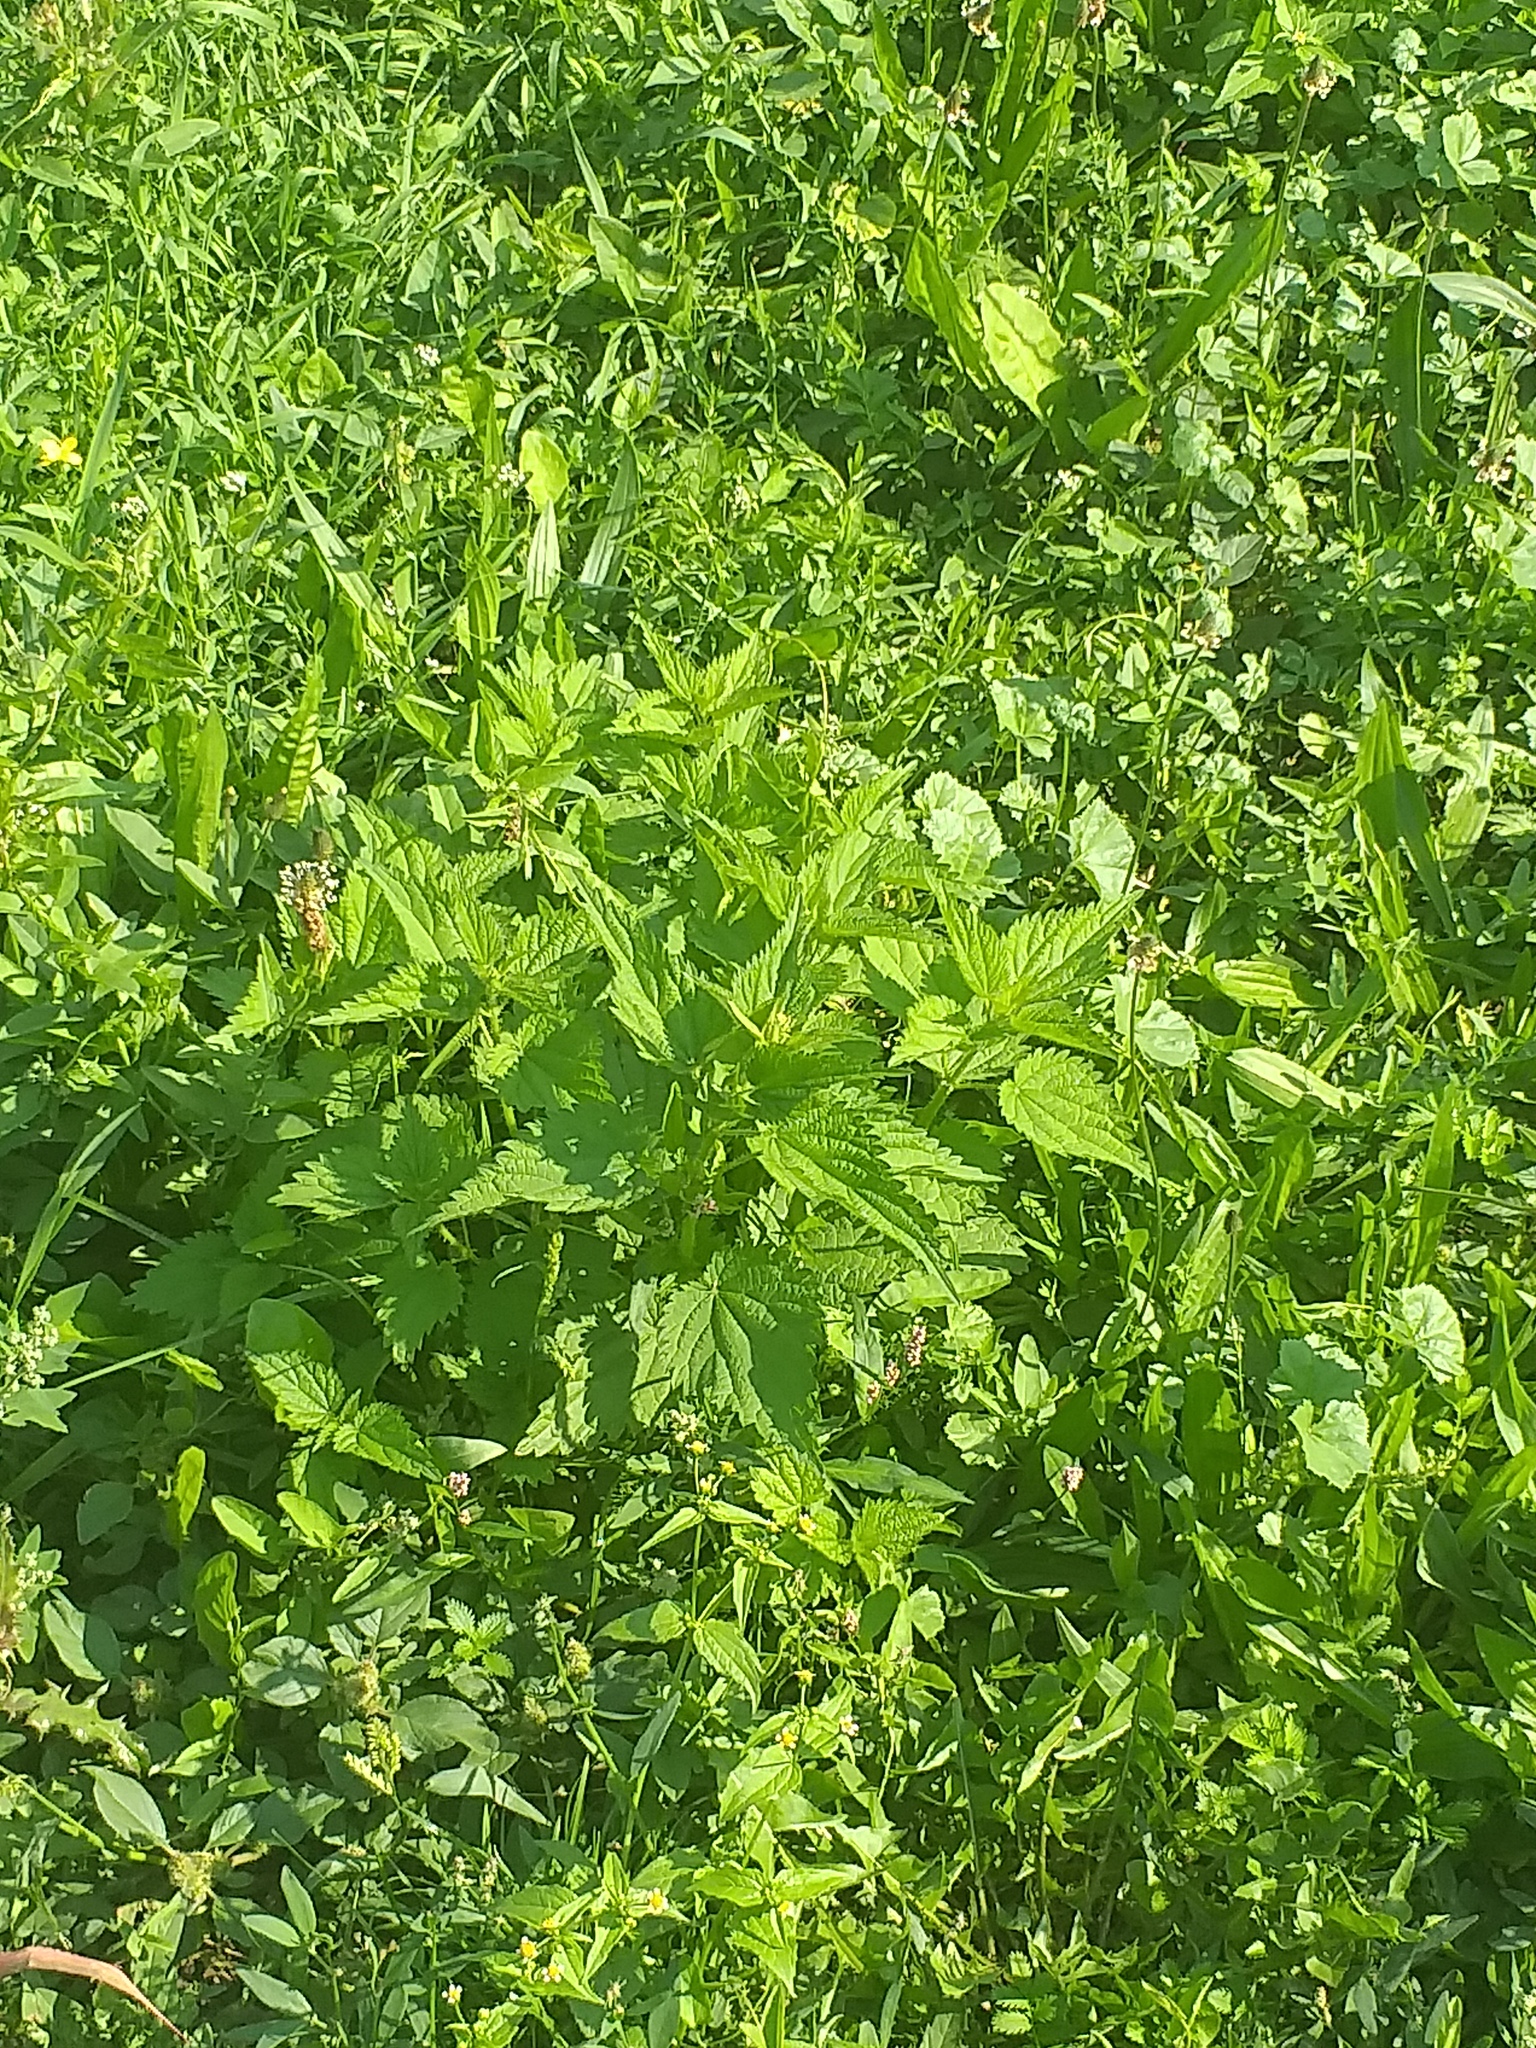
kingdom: Plantae
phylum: Tracheophyta
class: Magnoliopsida
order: Rosales
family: Urticaceae
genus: Urtica
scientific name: Urtica dioica
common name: Common nettle
